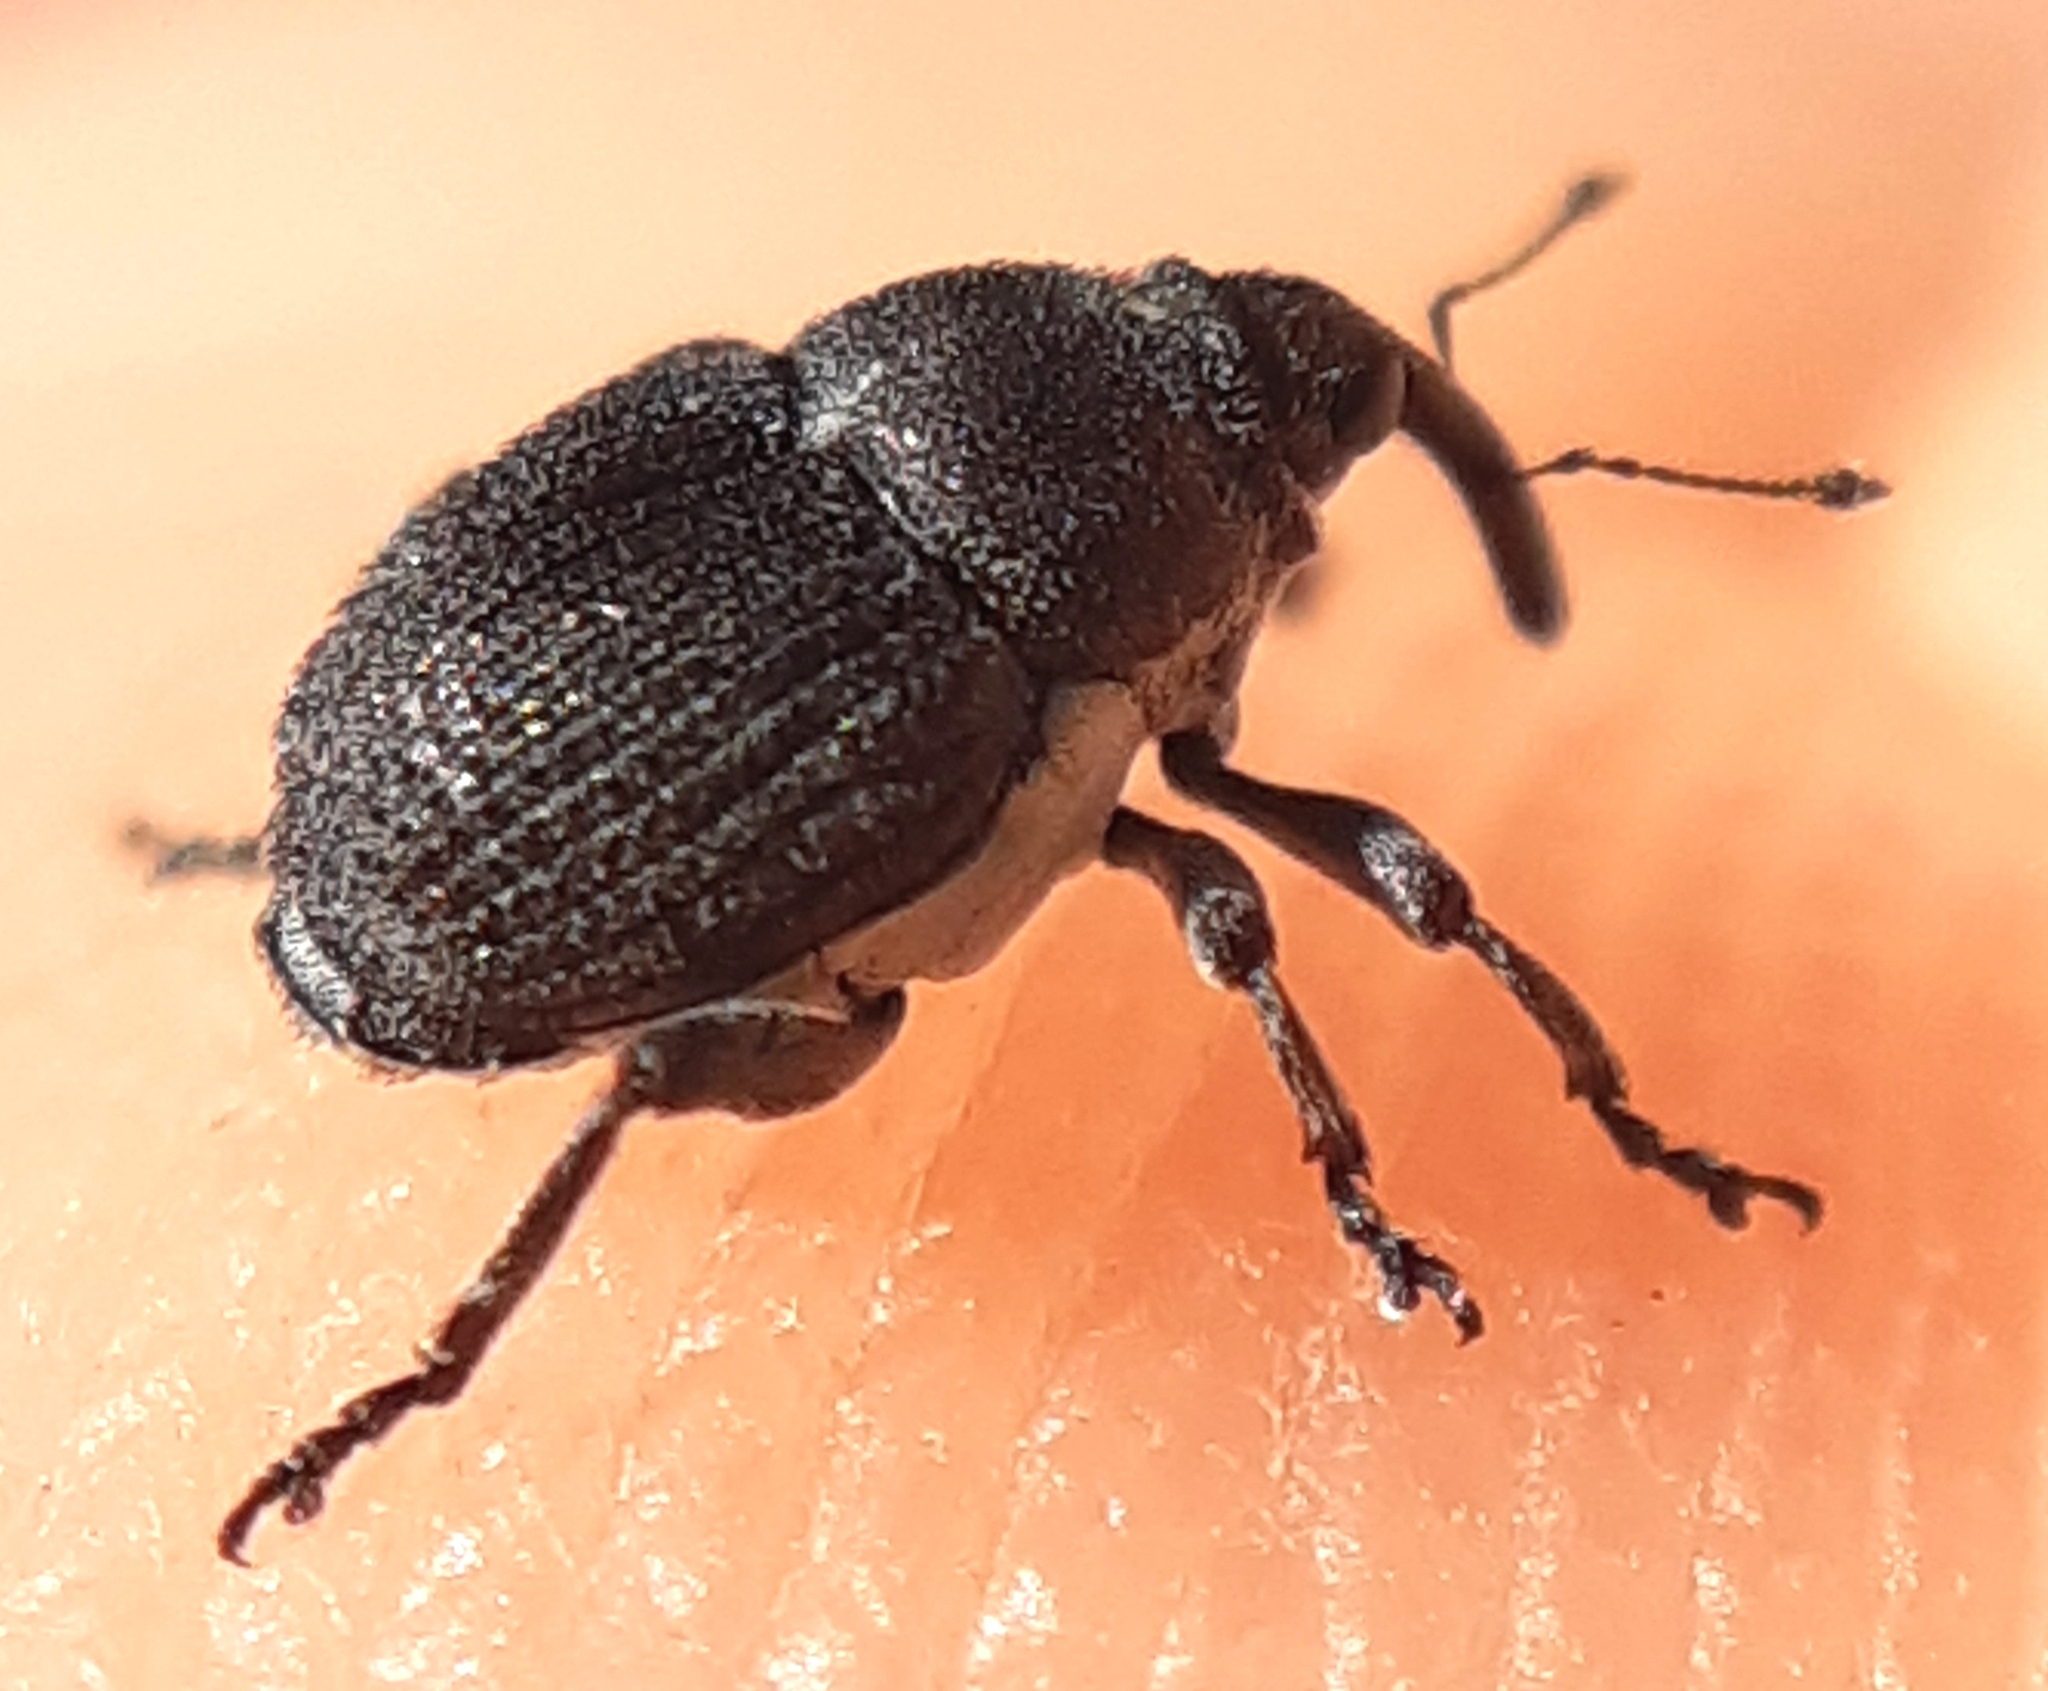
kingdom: Animalia
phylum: Arthropoda
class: Insecta
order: Coleoptera
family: Curculionidae
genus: Zacladus
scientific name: Zacladus geranii
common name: Meadow cranesbill weevil
